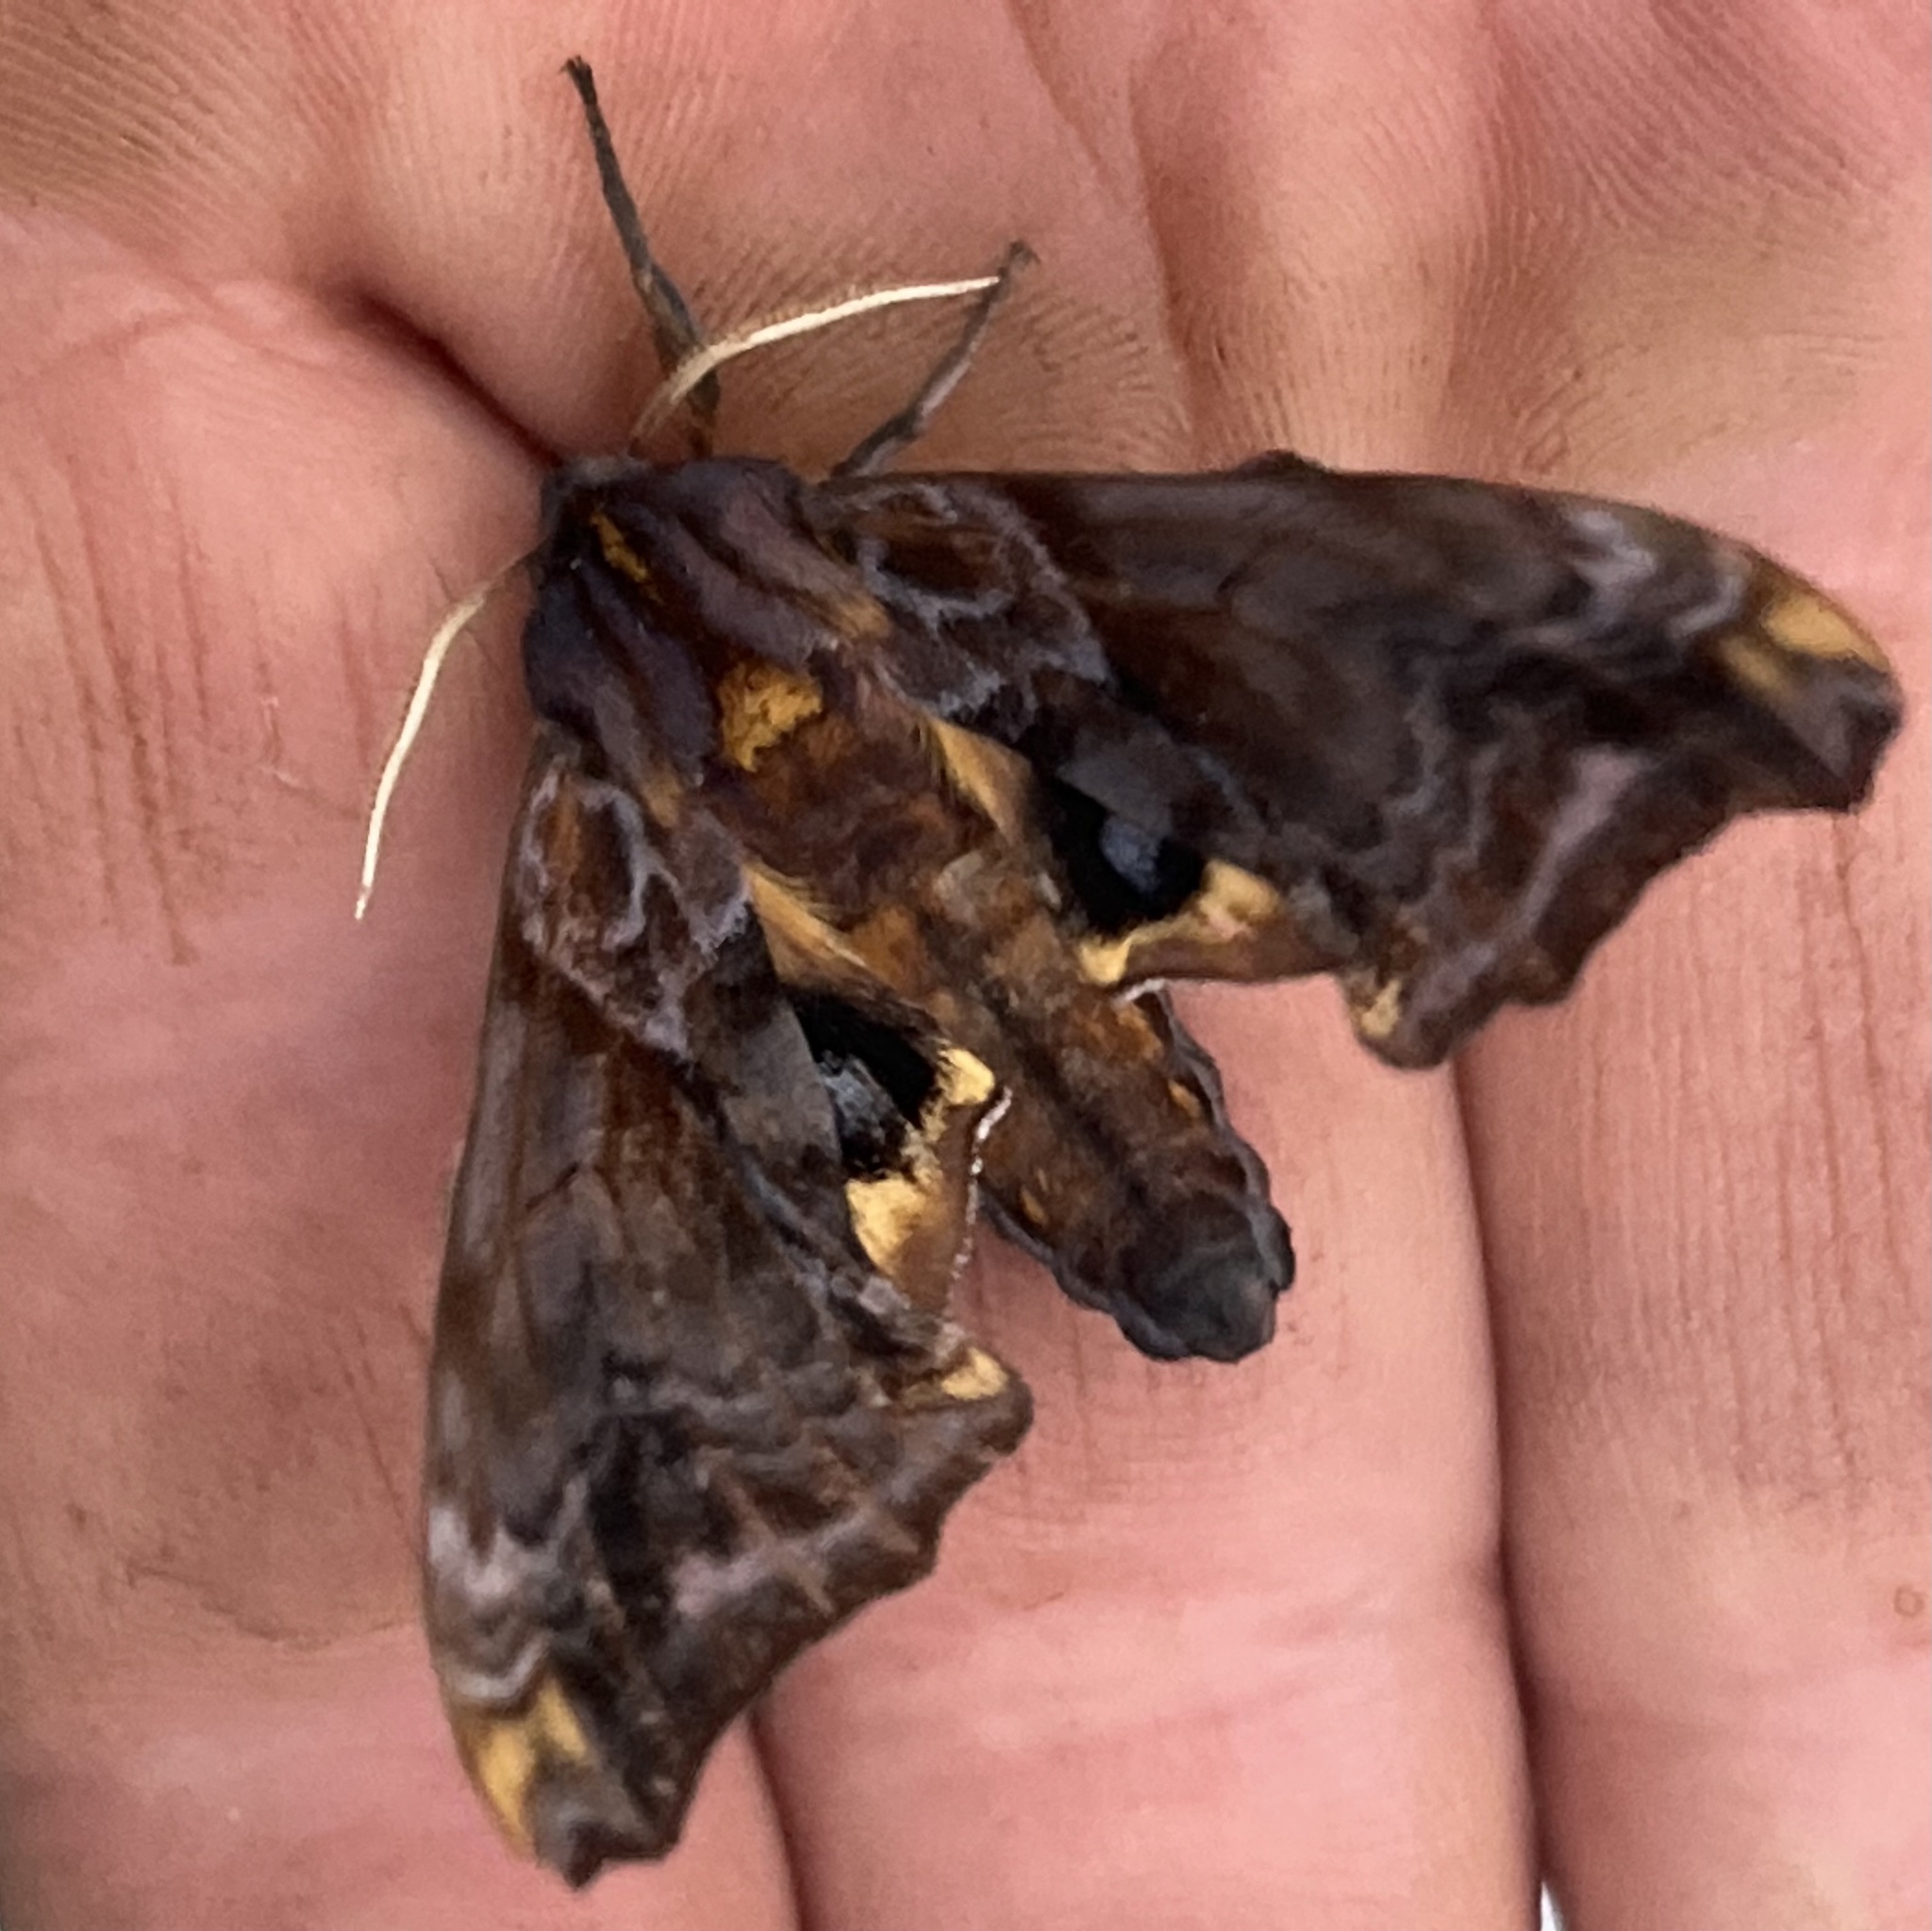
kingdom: Animalia
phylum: Arthropoda
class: Insecta
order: Lepidoptera
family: Sphingidae
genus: Paonias
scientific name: Paonias myops
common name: Small-eyed sphinx
